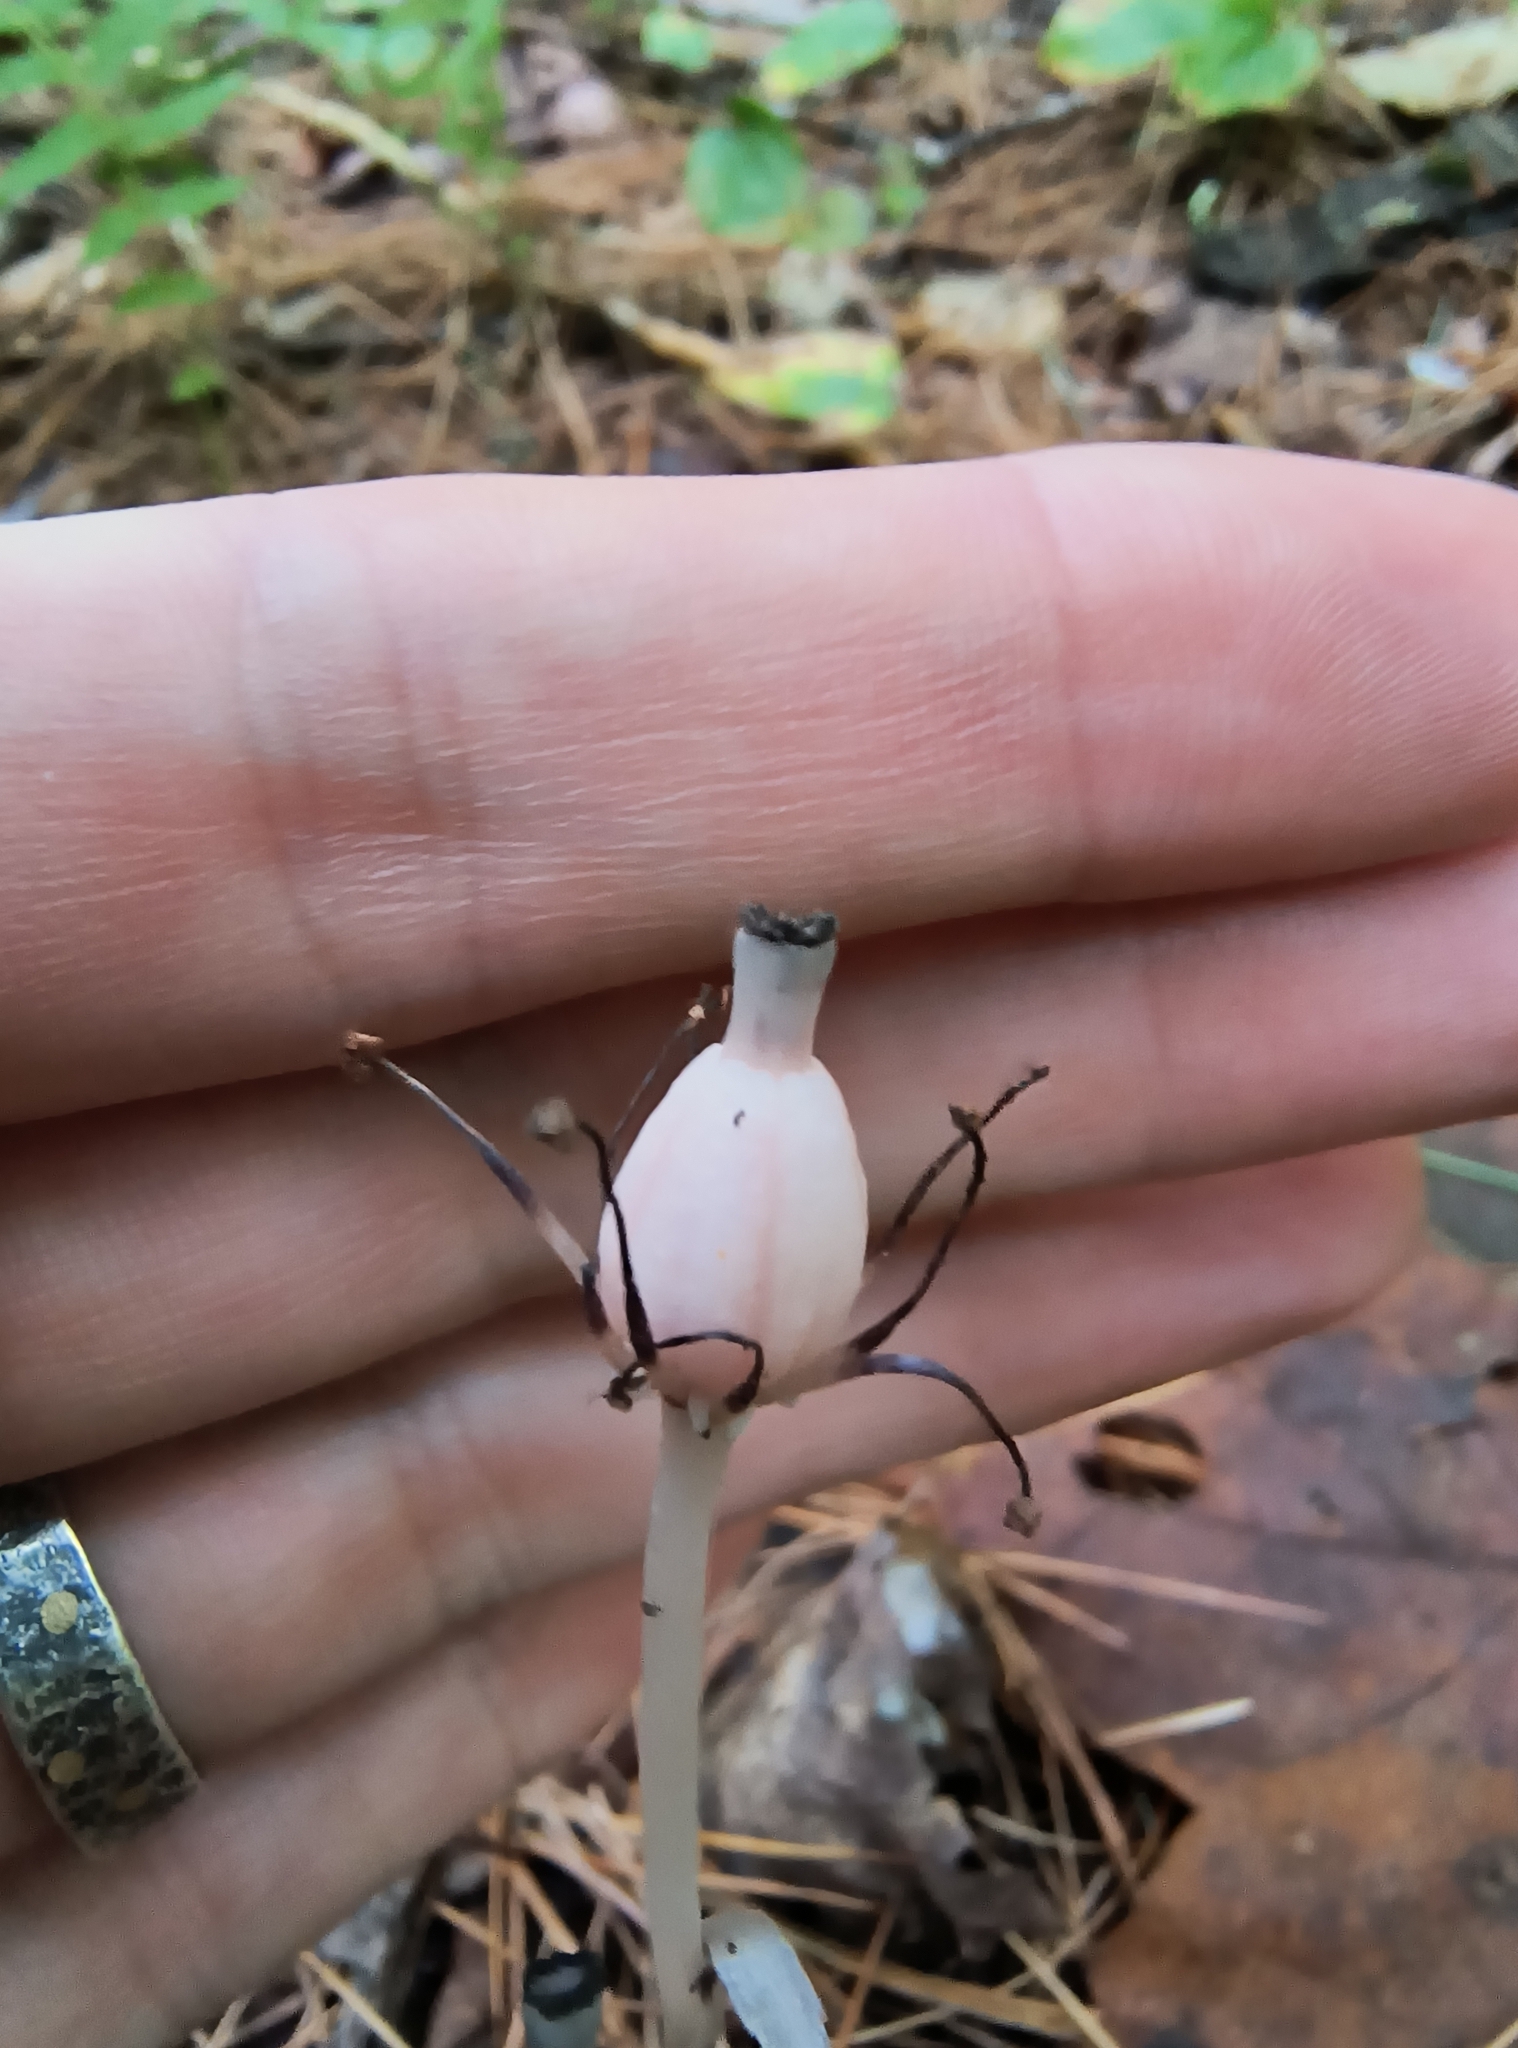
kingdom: Plantae
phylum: Tracheophyta
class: Magnoliopsida
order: Ericales
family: Ericaceae
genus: Monotropa
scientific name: Monotropa uniflora
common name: Convulsion root
